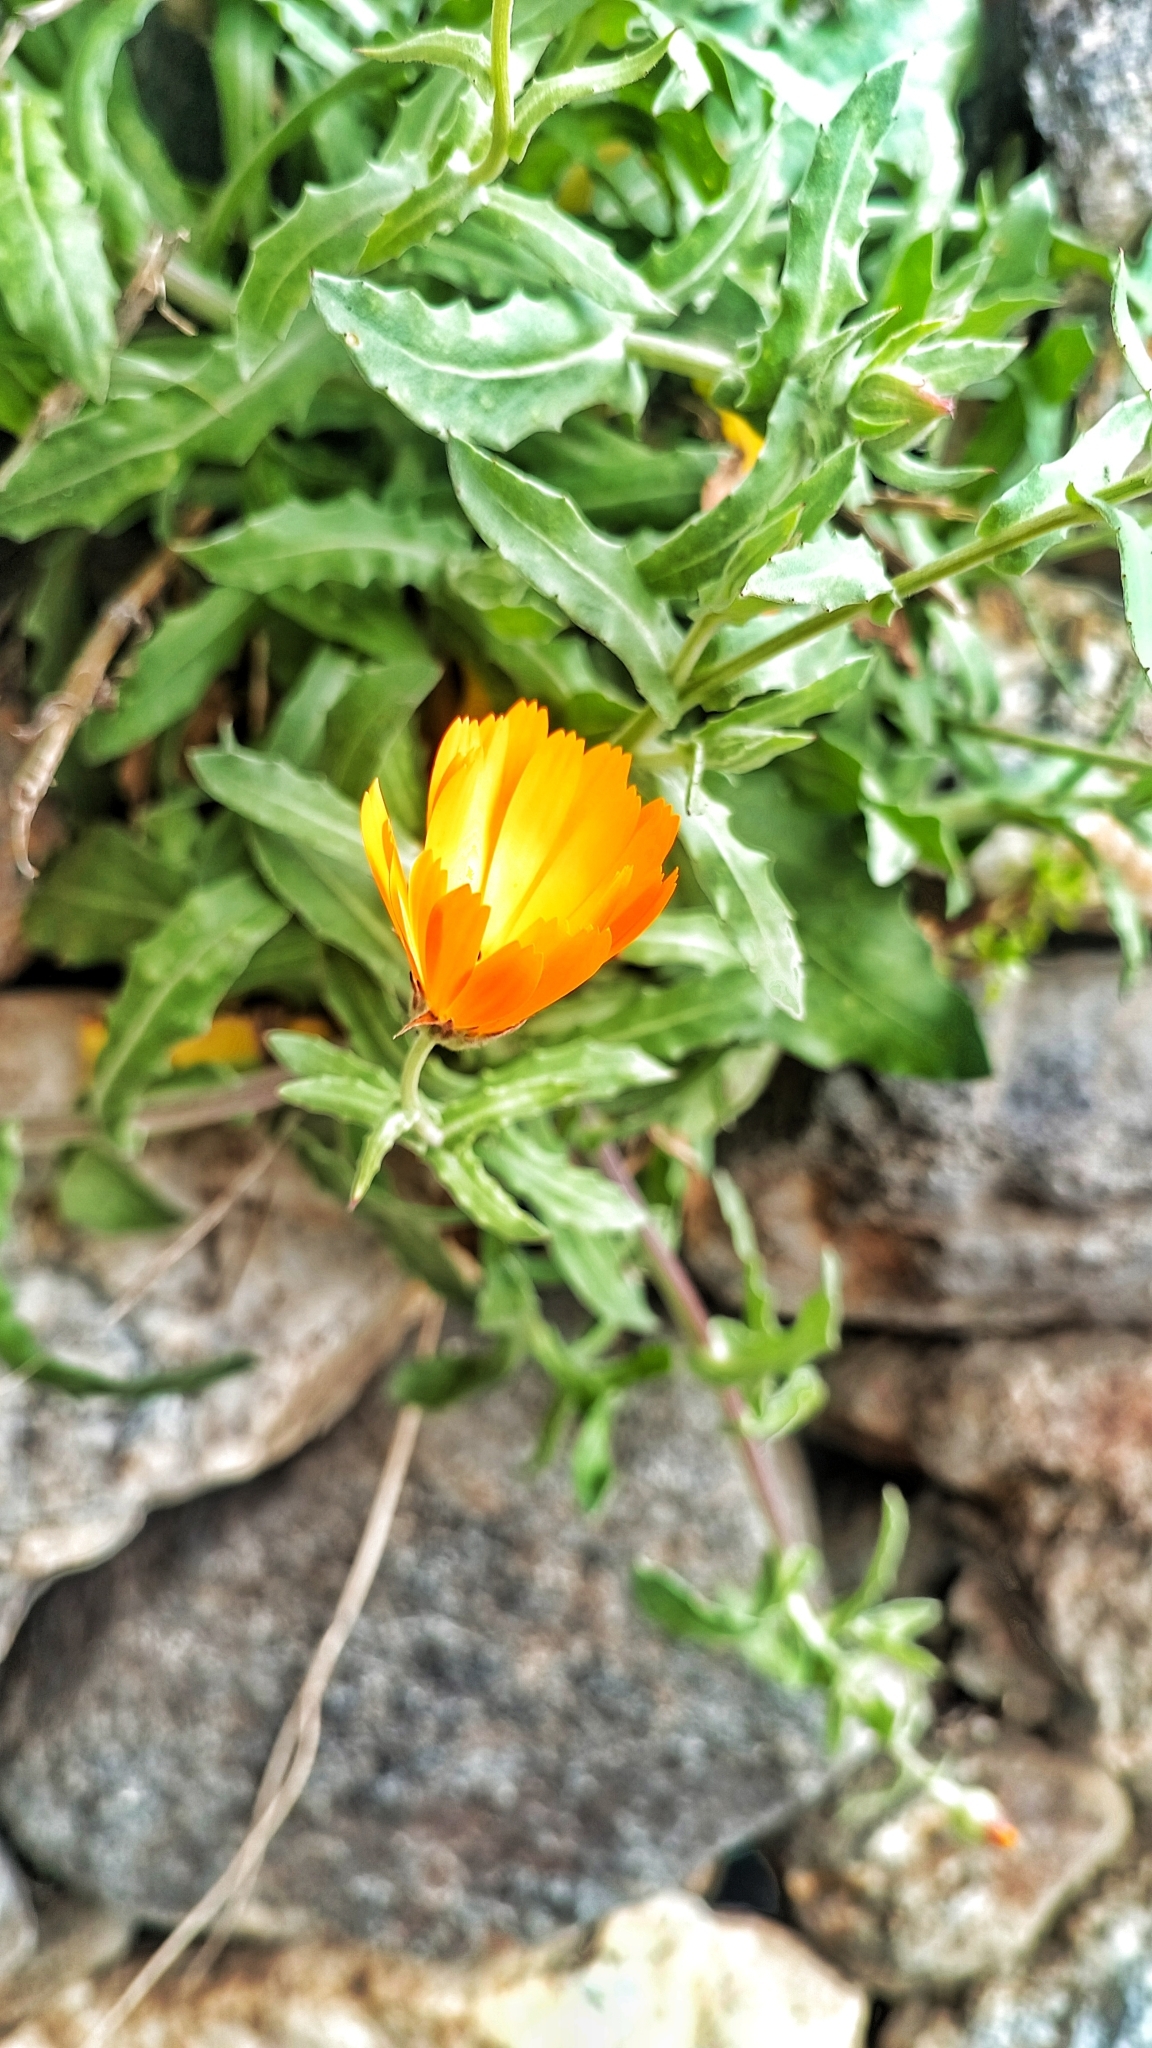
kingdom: Plantae
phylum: Tracheophyta
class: Magnoliopsida
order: Asterales
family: Asteraceae
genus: Calendula
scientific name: Calendula suffruticosa
